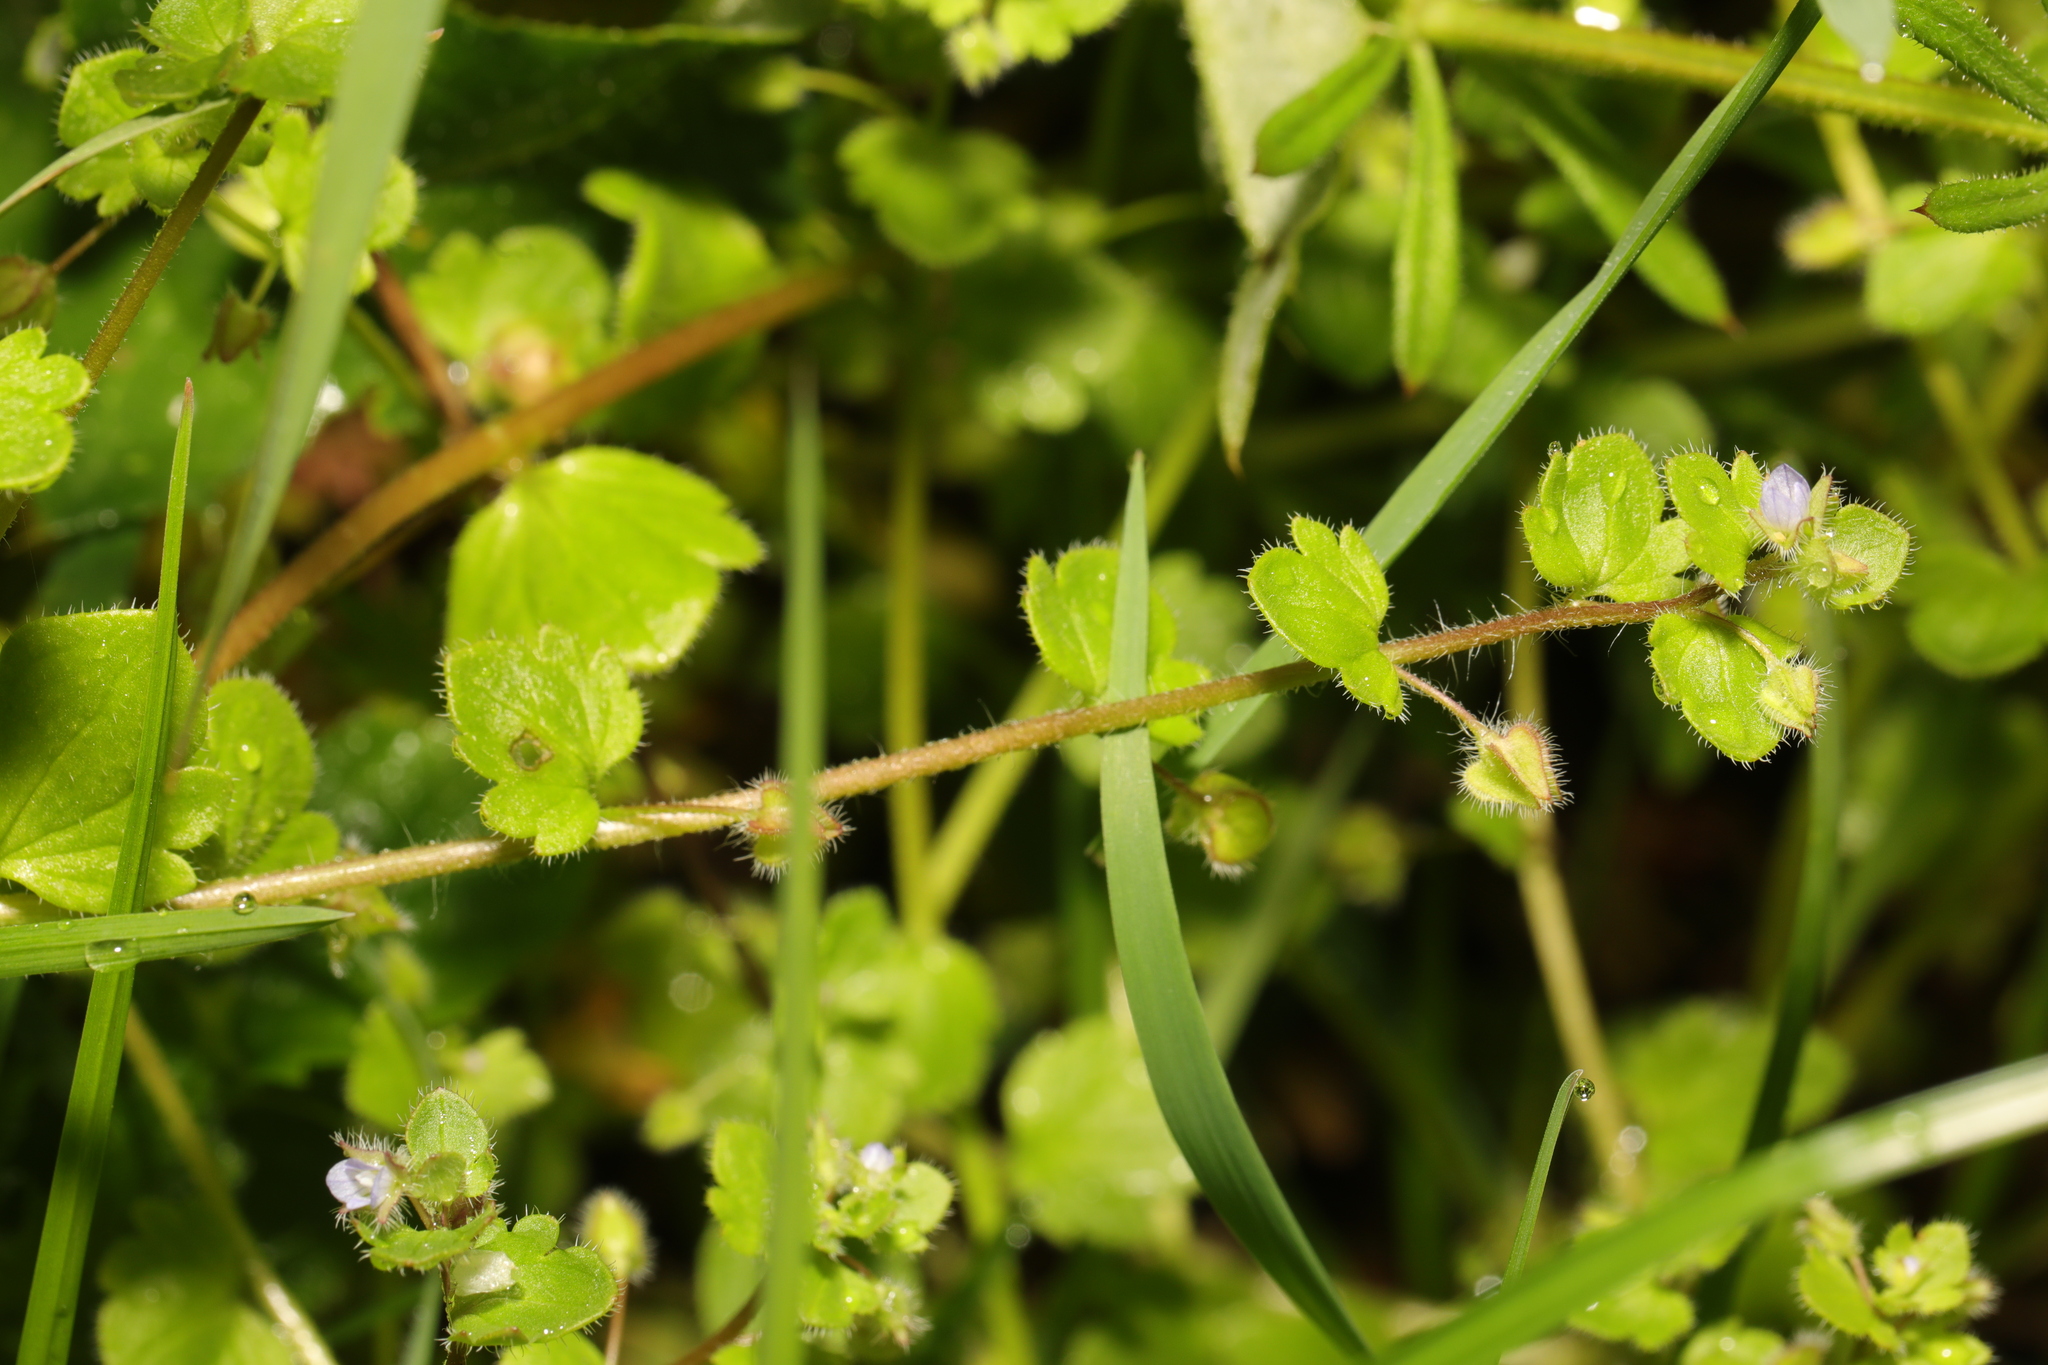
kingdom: Plantae
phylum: Tracheophyta
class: Magnoliopsida
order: Lamiales
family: Plantaginaceae
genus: Veronica
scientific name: Veronica sublobata
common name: False ivy-leaved speedwell
